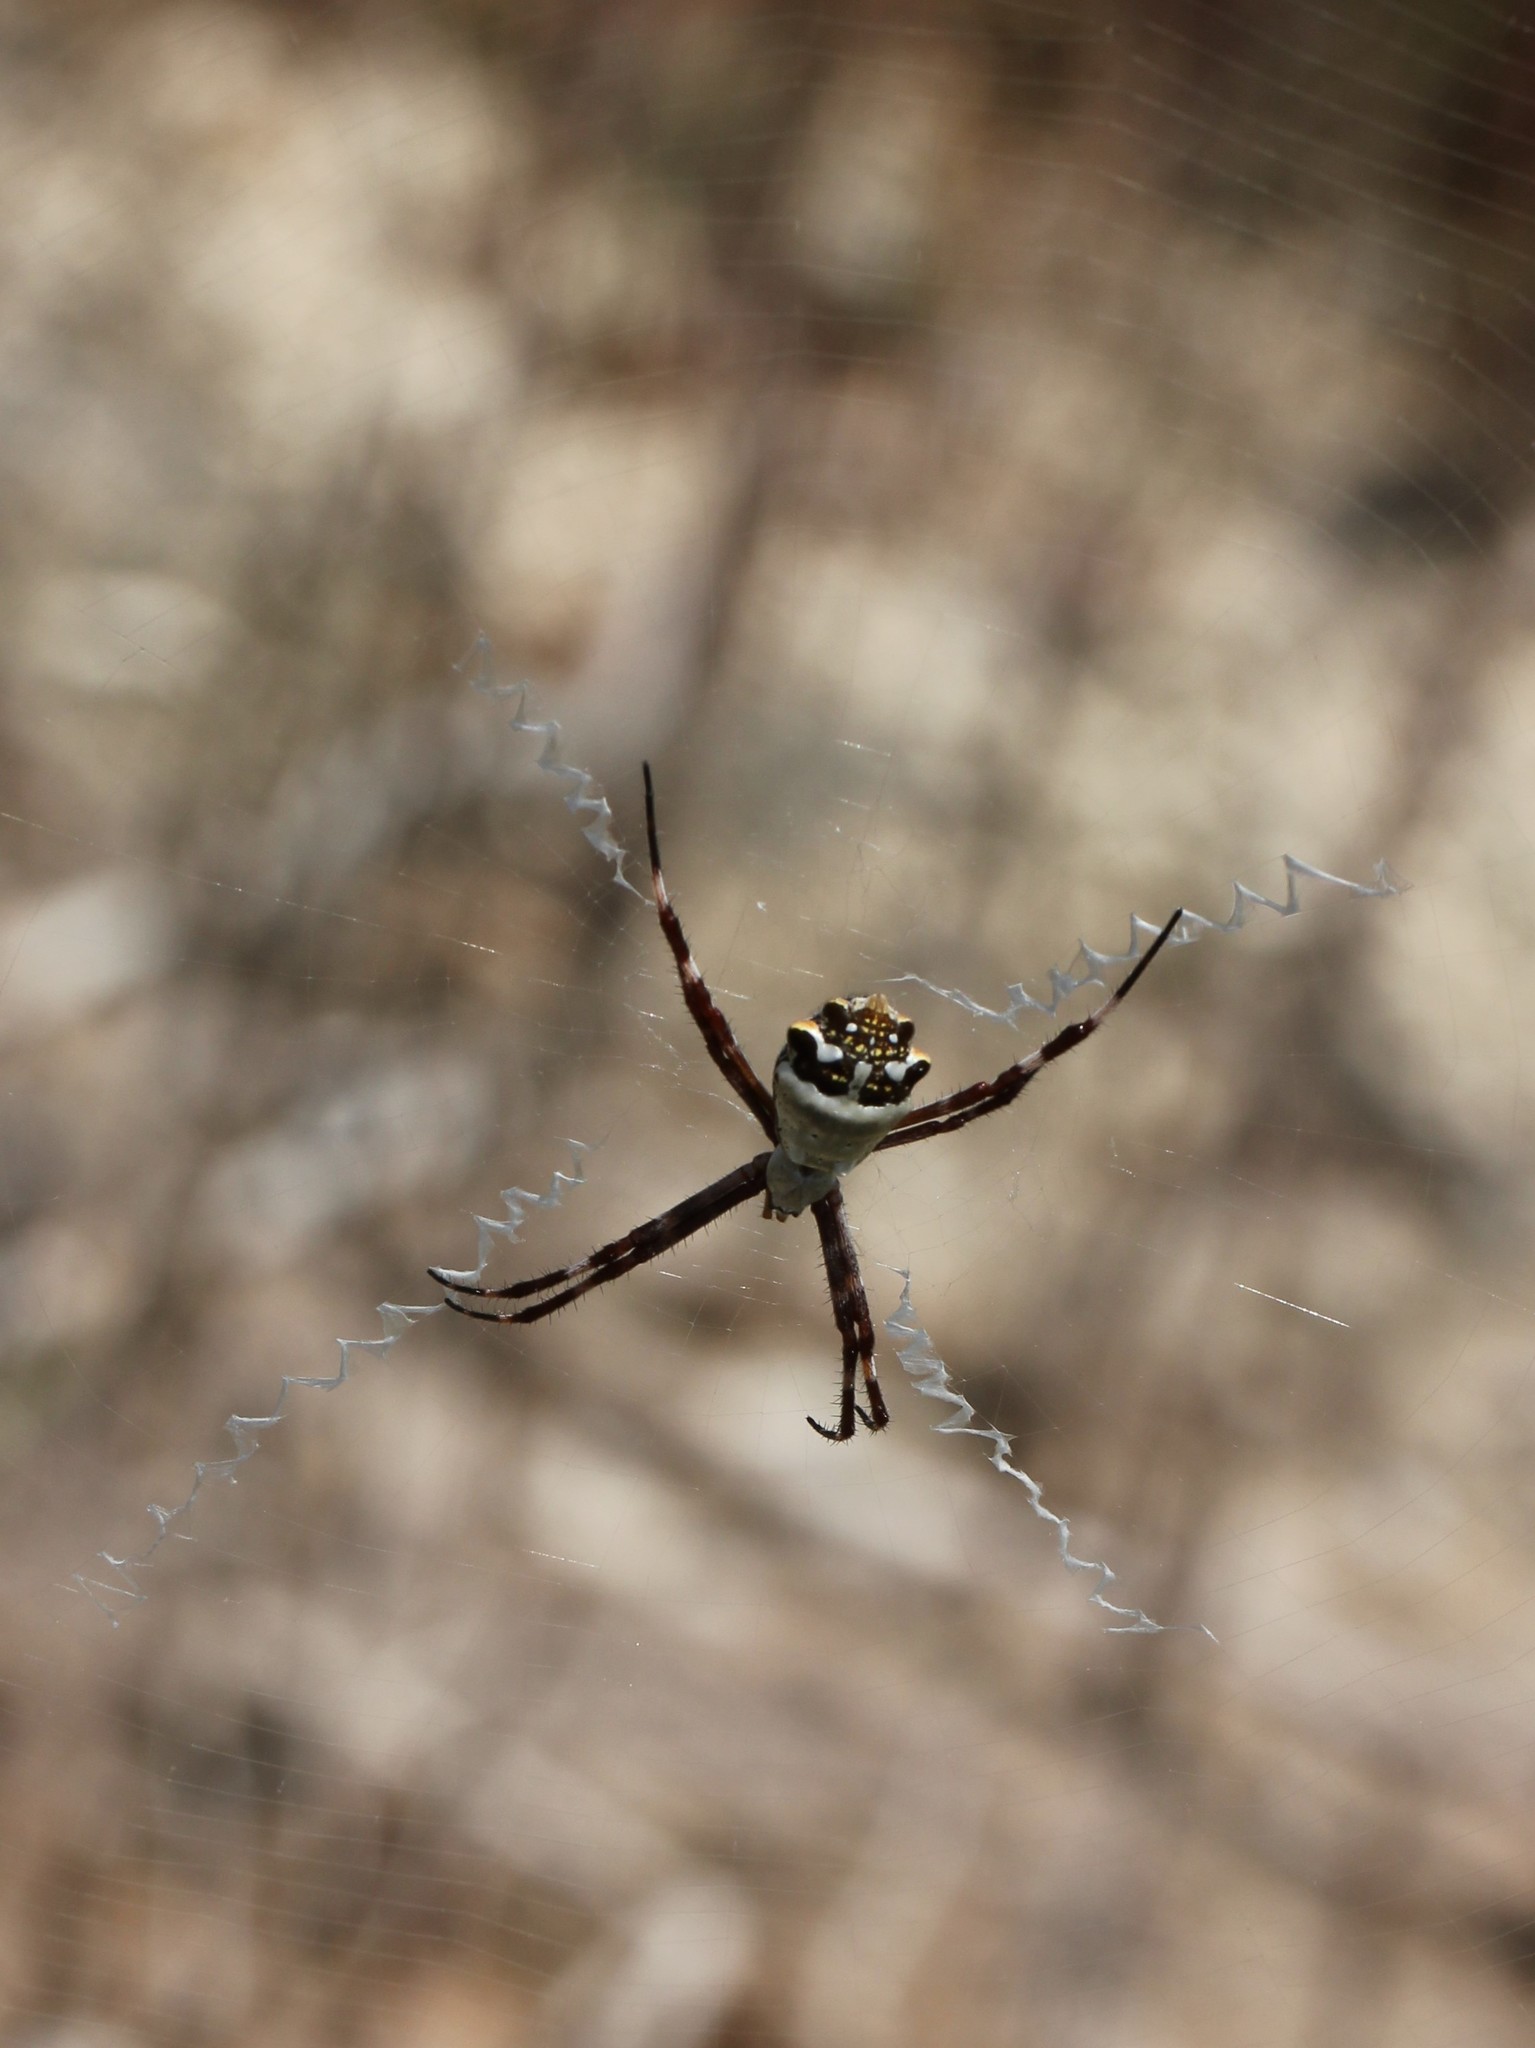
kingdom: Animalia
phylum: Arthropoda
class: Arachnida
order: Araneae
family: Araneidae
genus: Argiope
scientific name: Argiope argentata
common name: Orb weavers
